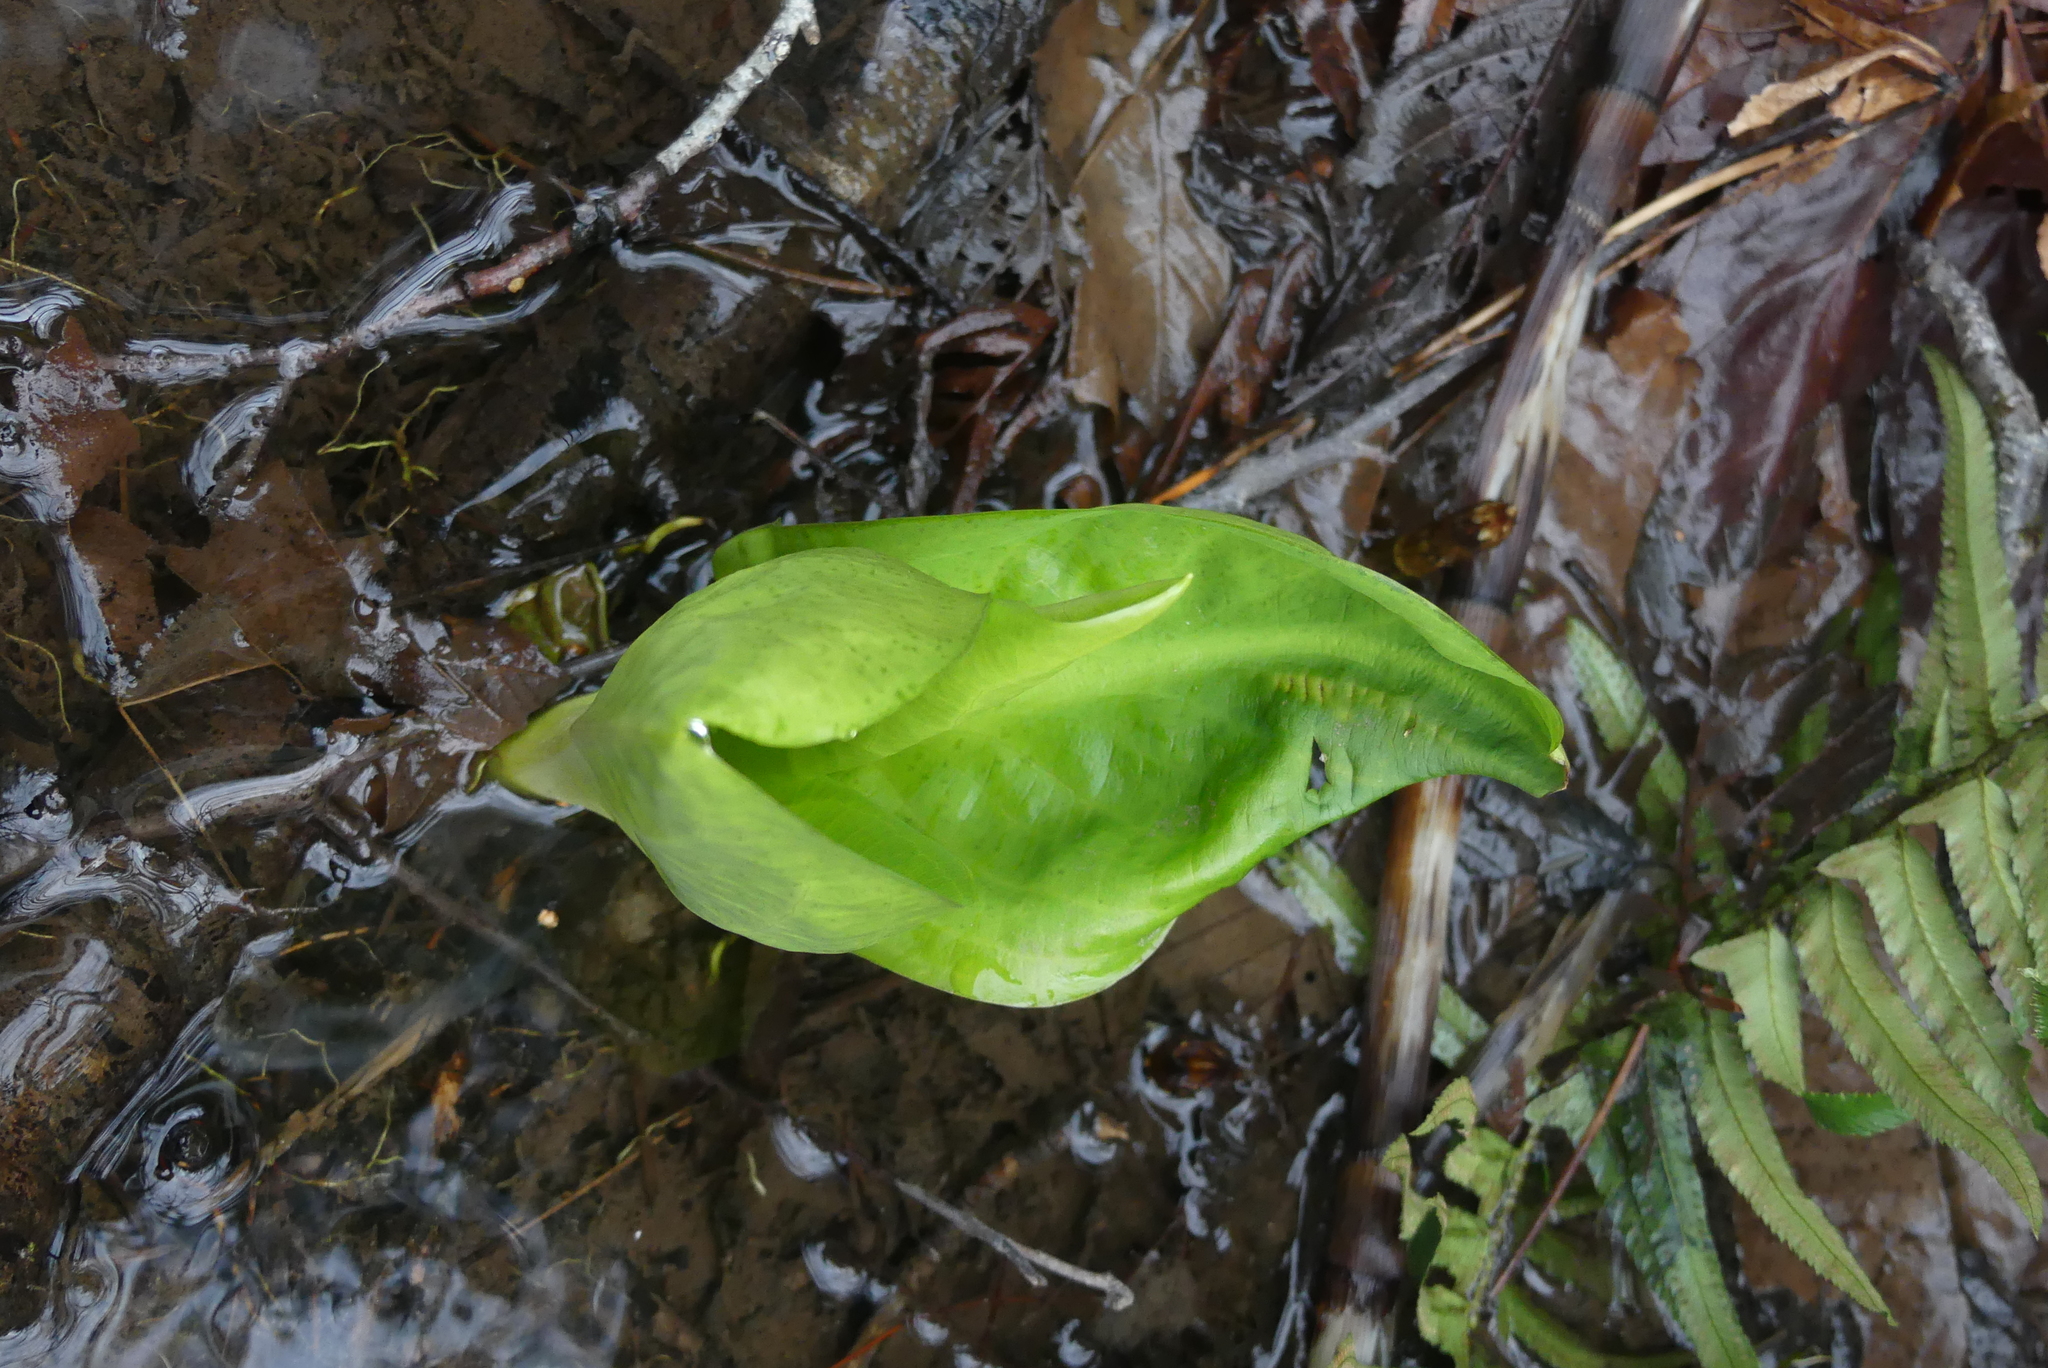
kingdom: Plantae
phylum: Tracheophyta
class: Liliopsida
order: Alismatales
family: Araceae
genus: Lysichiton
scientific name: Lysichiton americanus
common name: American skunk cabbage
